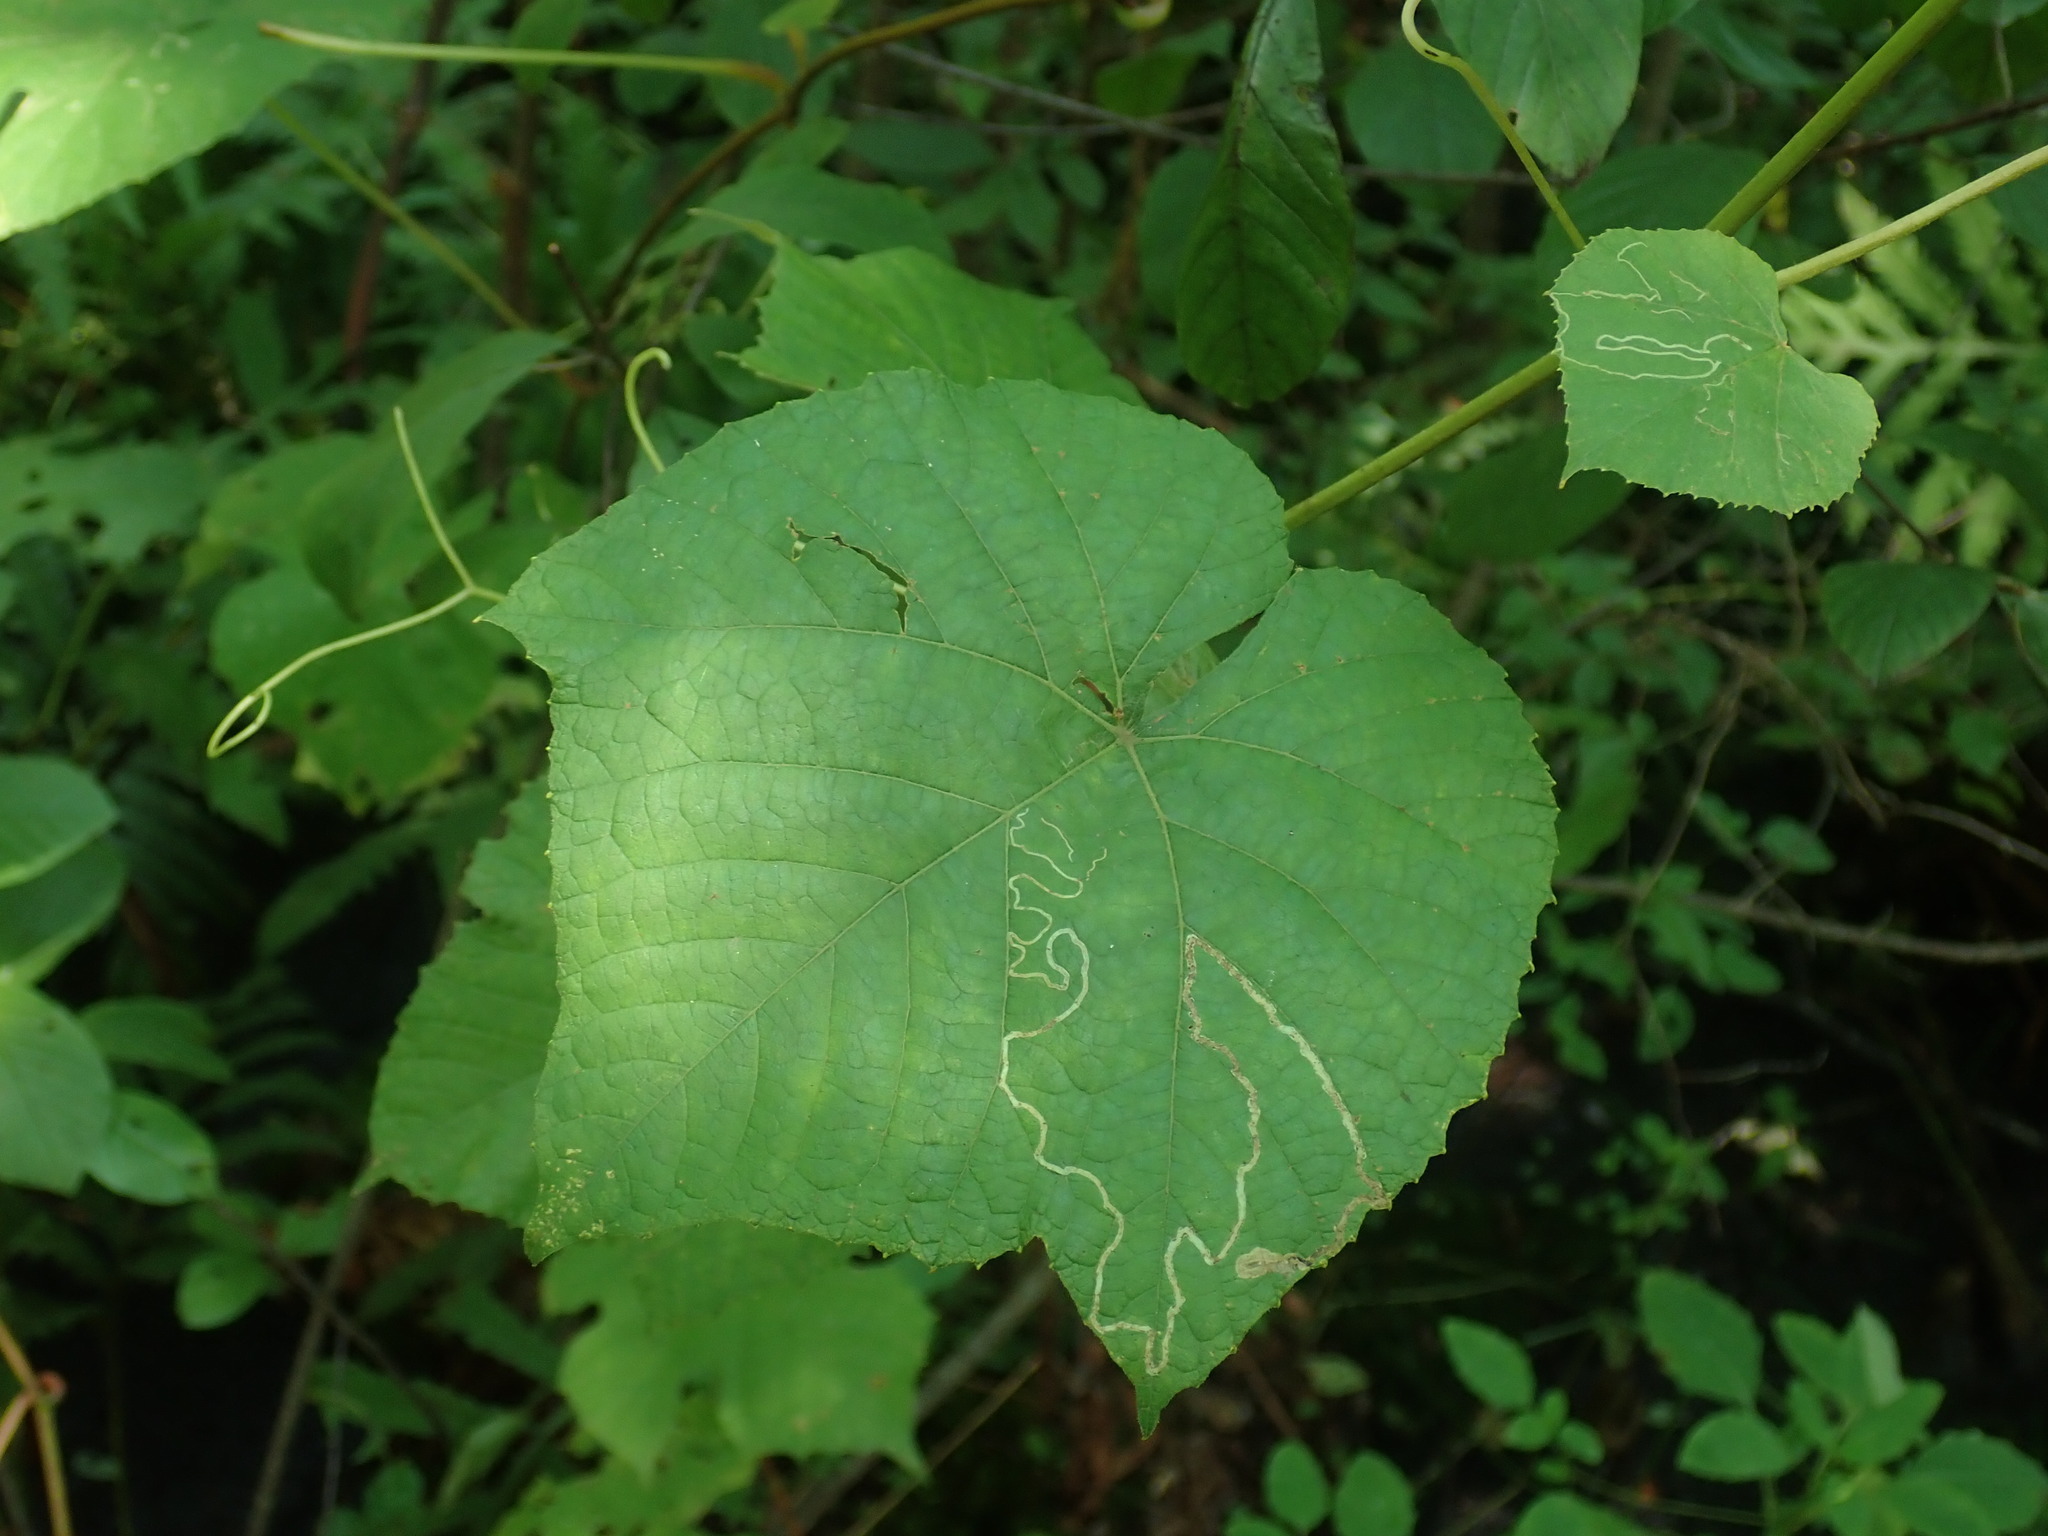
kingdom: Animalia
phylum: Arthropoda
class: Insecta
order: Lepidoptera
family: Gracillariidae
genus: Phyllocnistis
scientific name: Phyllocnistis vitifoliella
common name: Grape leaf-miner moth
